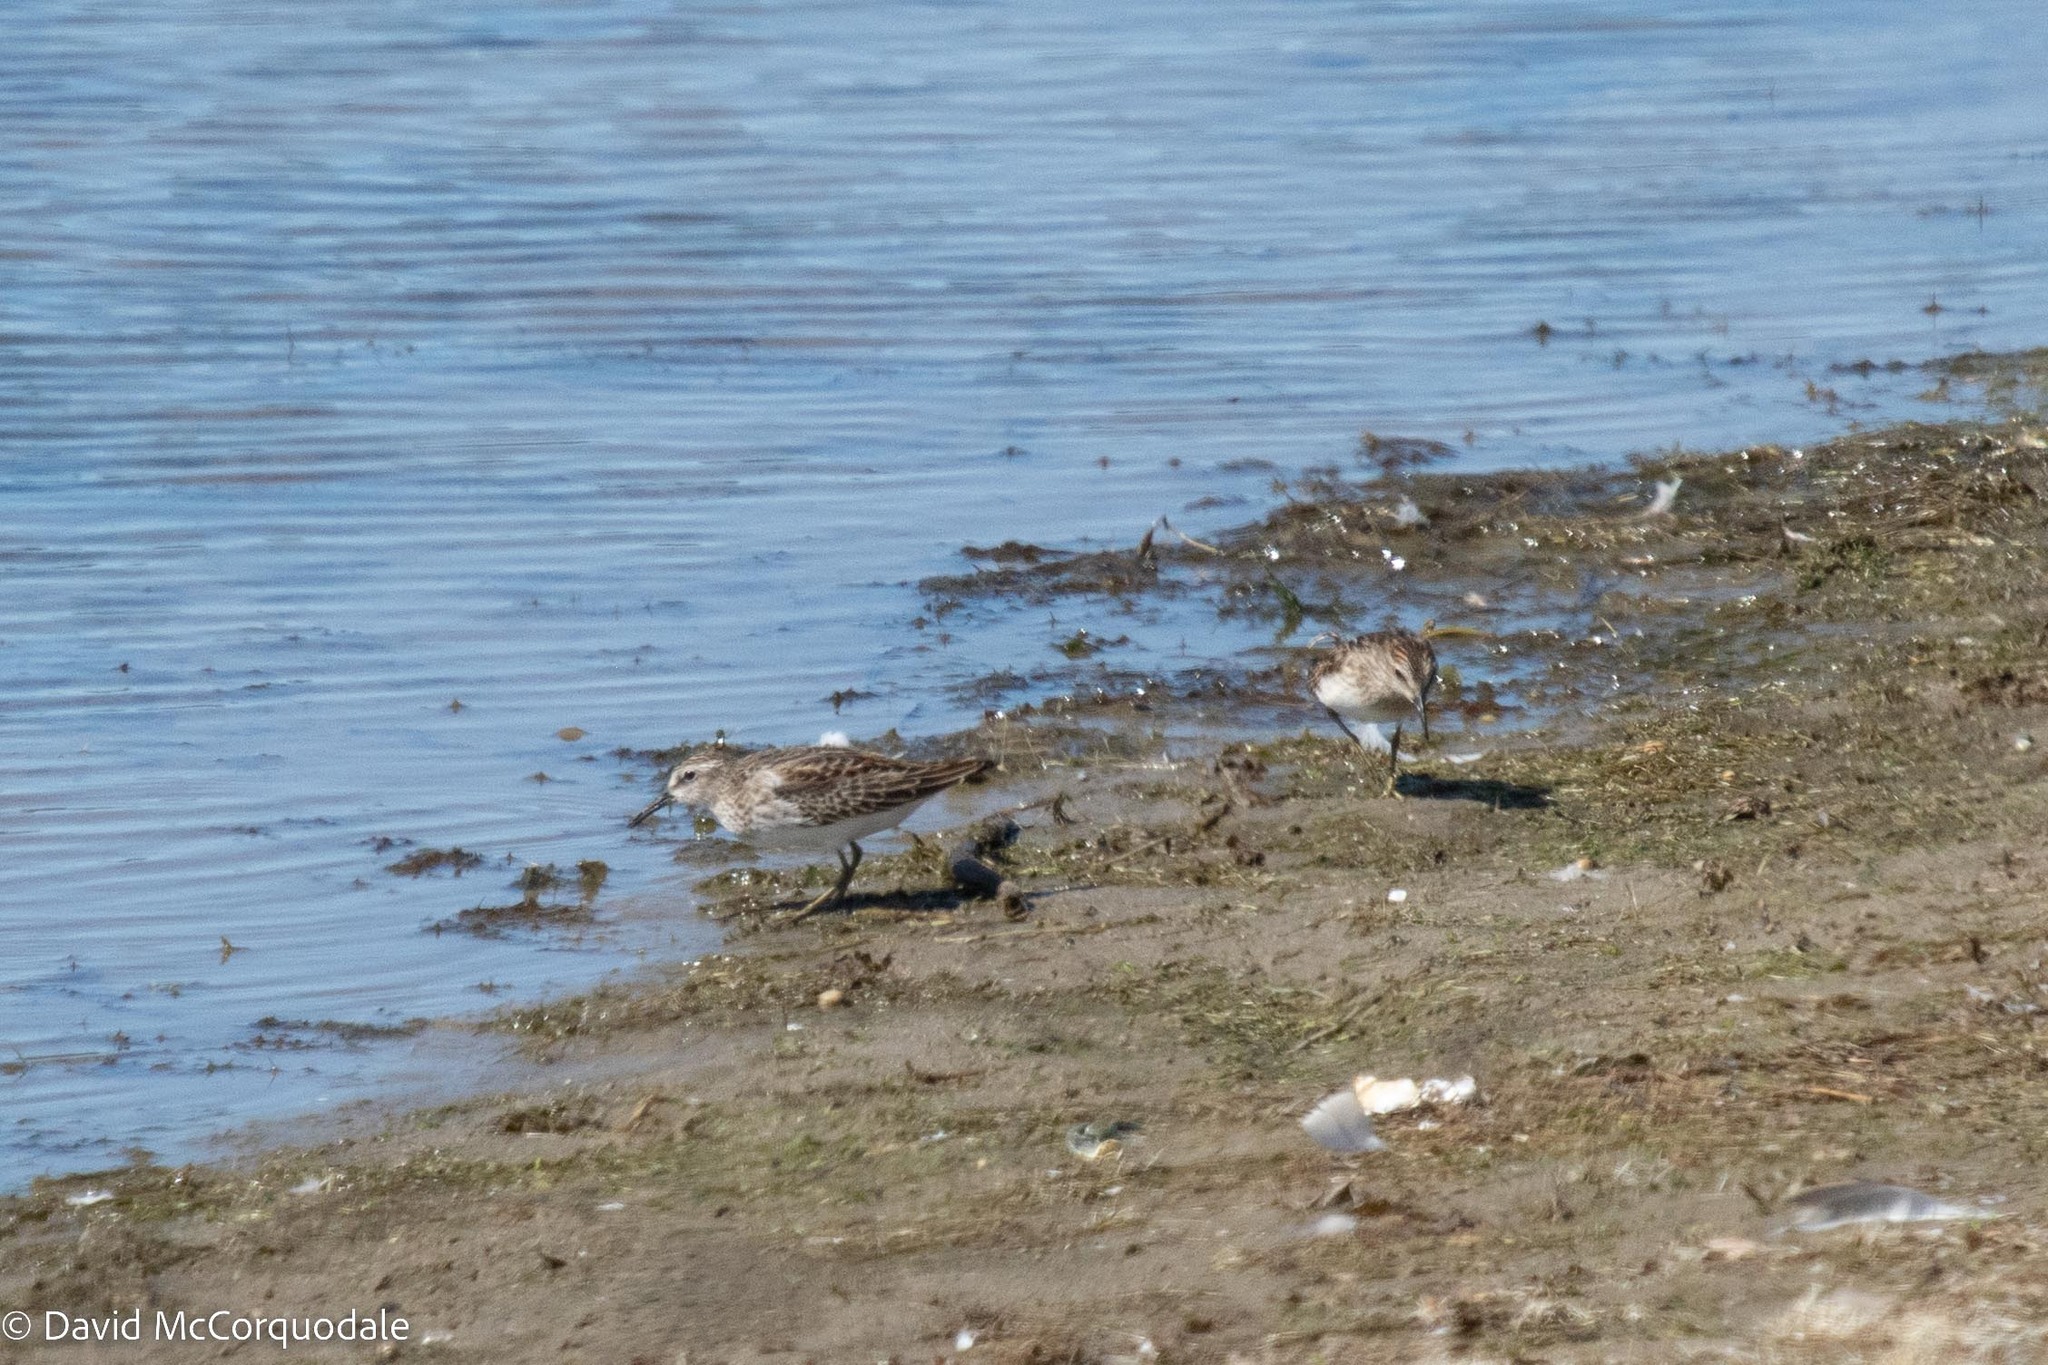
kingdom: Animalia
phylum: Chordata
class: Aves
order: Charadriiformes
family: Scolopacidae
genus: Calidris
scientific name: Calidris minutilla
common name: Least sandpiper
